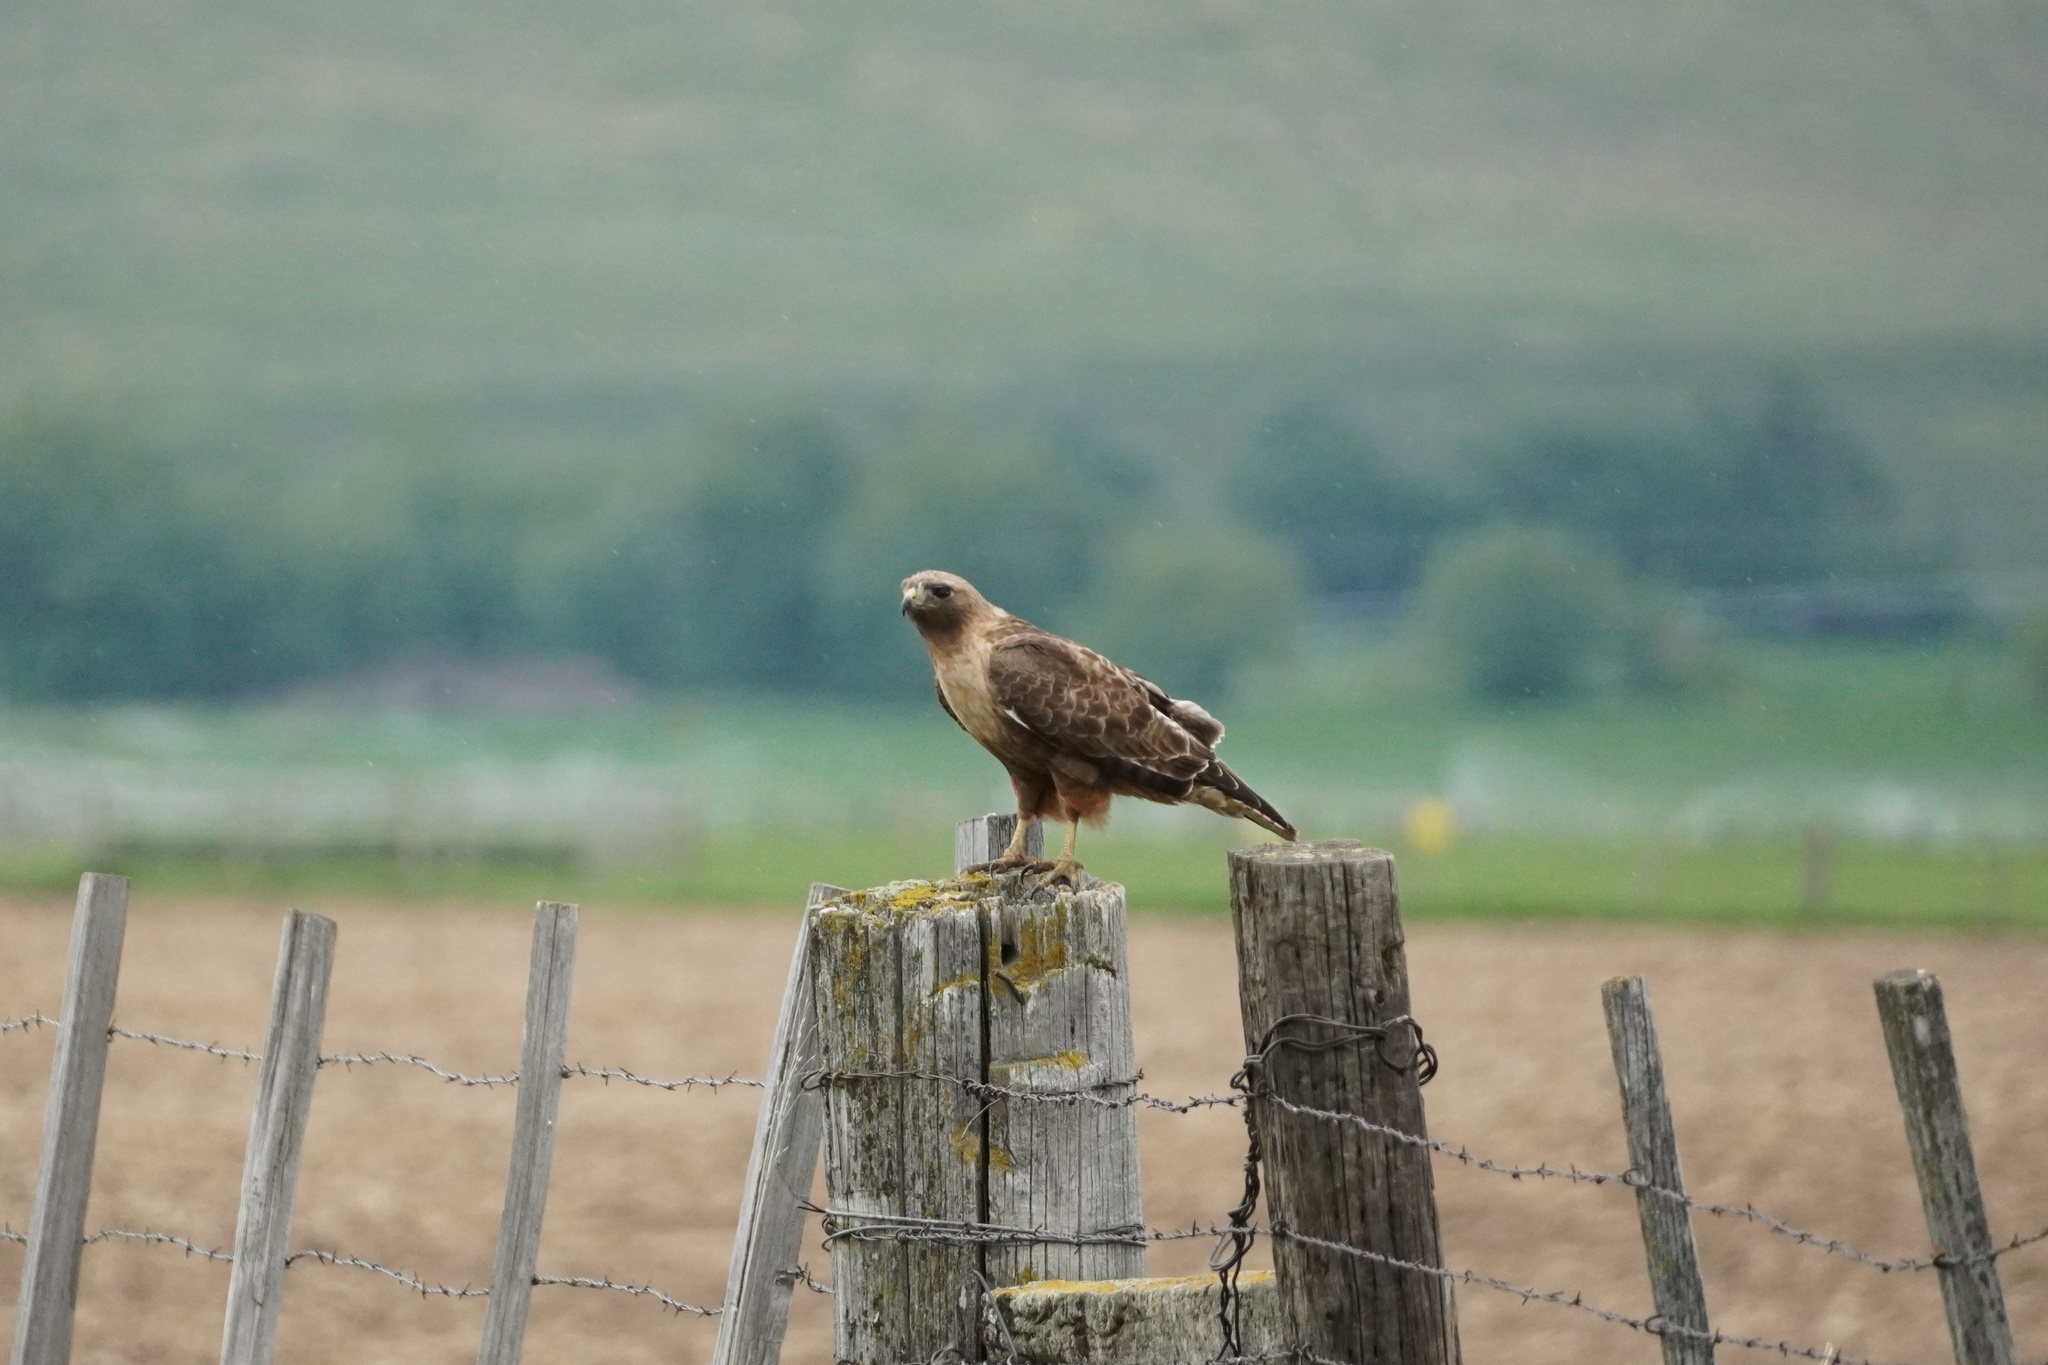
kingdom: Animalia
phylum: Chordata
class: Aves
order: Accipitriformes
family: Accipitridae
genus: Buteo
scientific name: Buteo jamaicensis
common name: Red-tailed hawk
